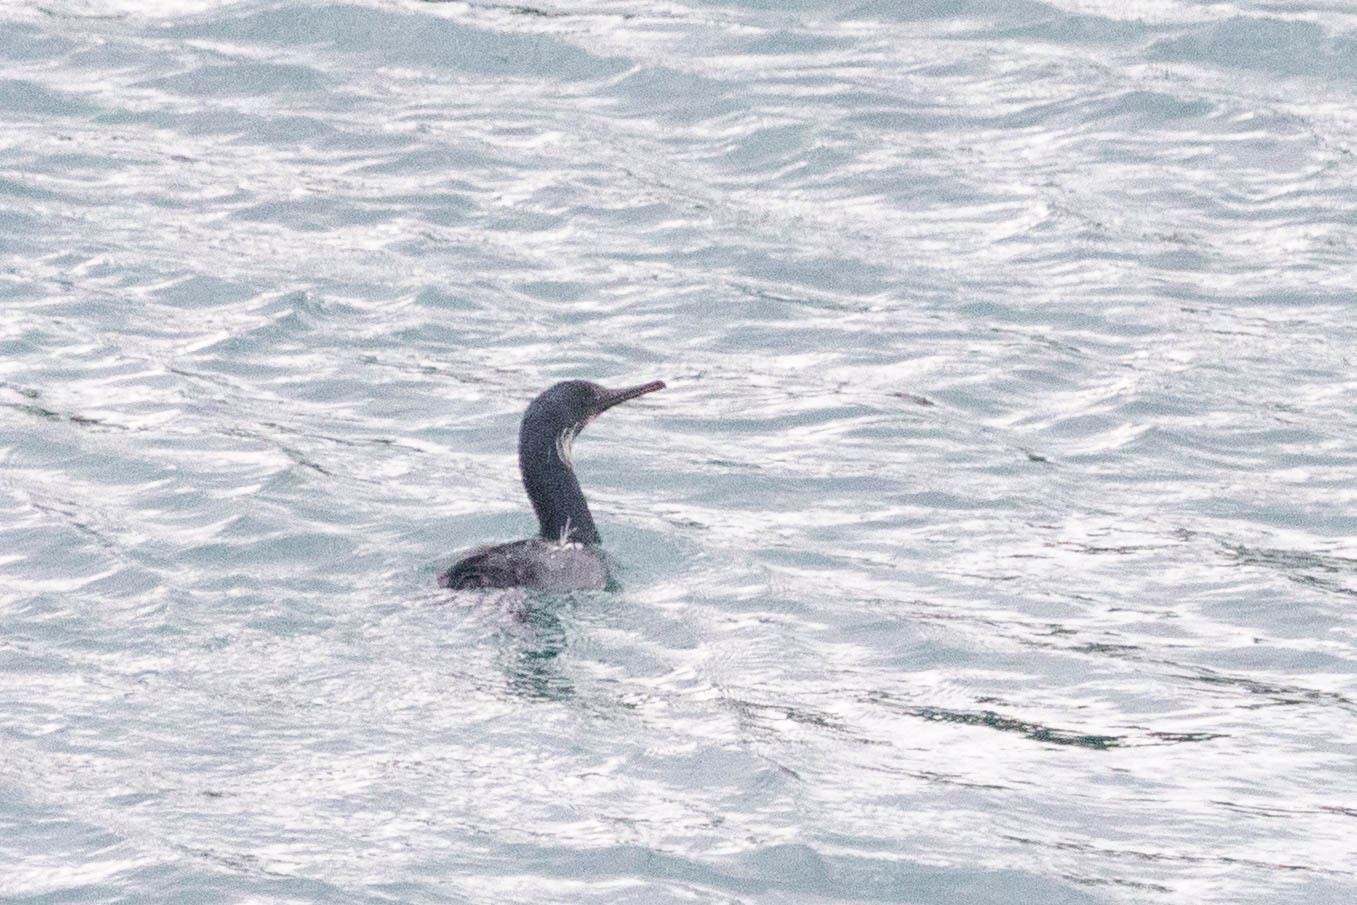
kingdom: Animalia
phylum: Chordata
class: Aves
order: Suliformes
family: Phalacrocoracidae
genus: Urile
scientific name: Urile penicillatus
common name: Brandt's cormorant
